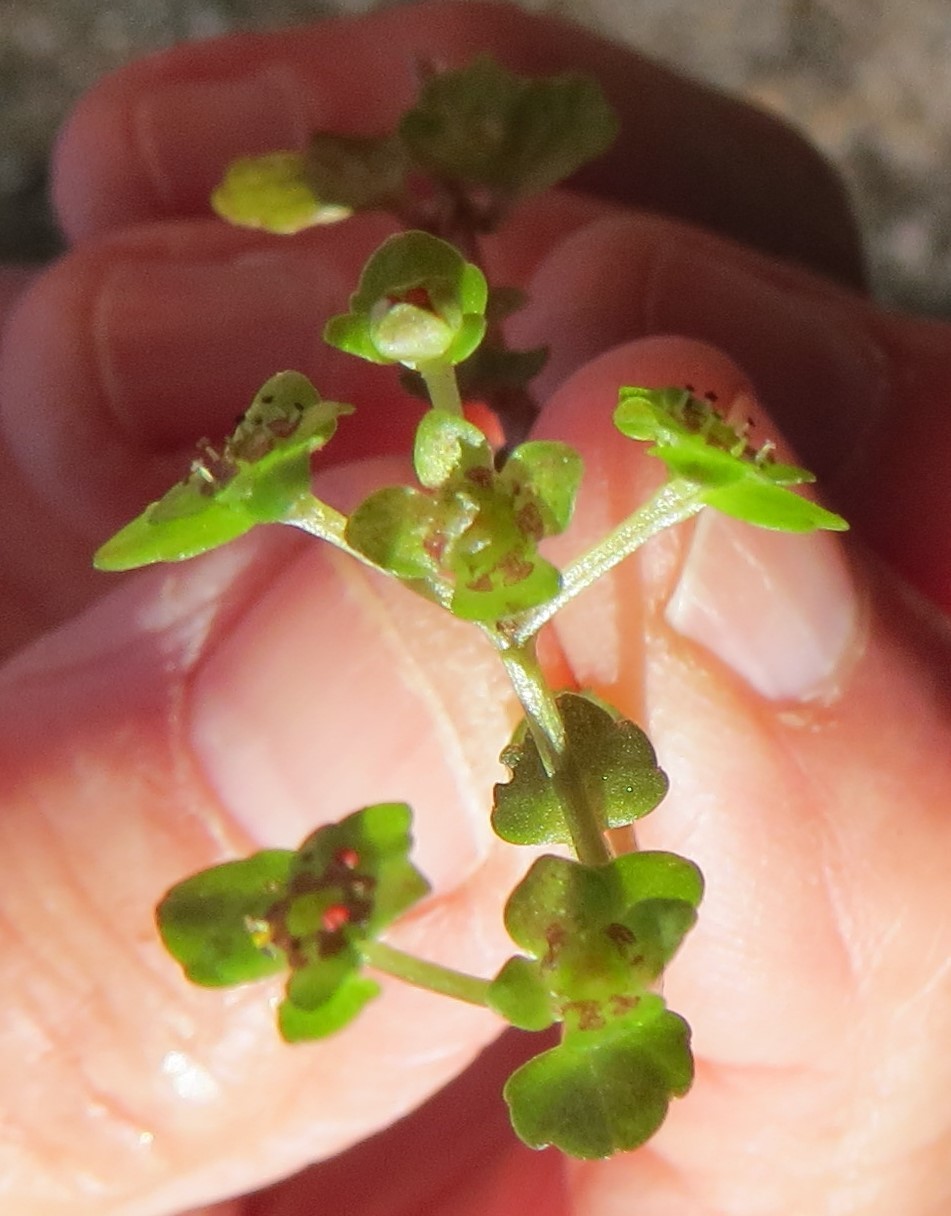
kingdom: Plantae
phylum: Tracheophyta
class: Magnoliopsida
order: Saxifragales
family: Saxifragaceae
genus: Chrysosplenium
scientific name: Chrysosplenium americanum
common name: American golden-saxifrage
